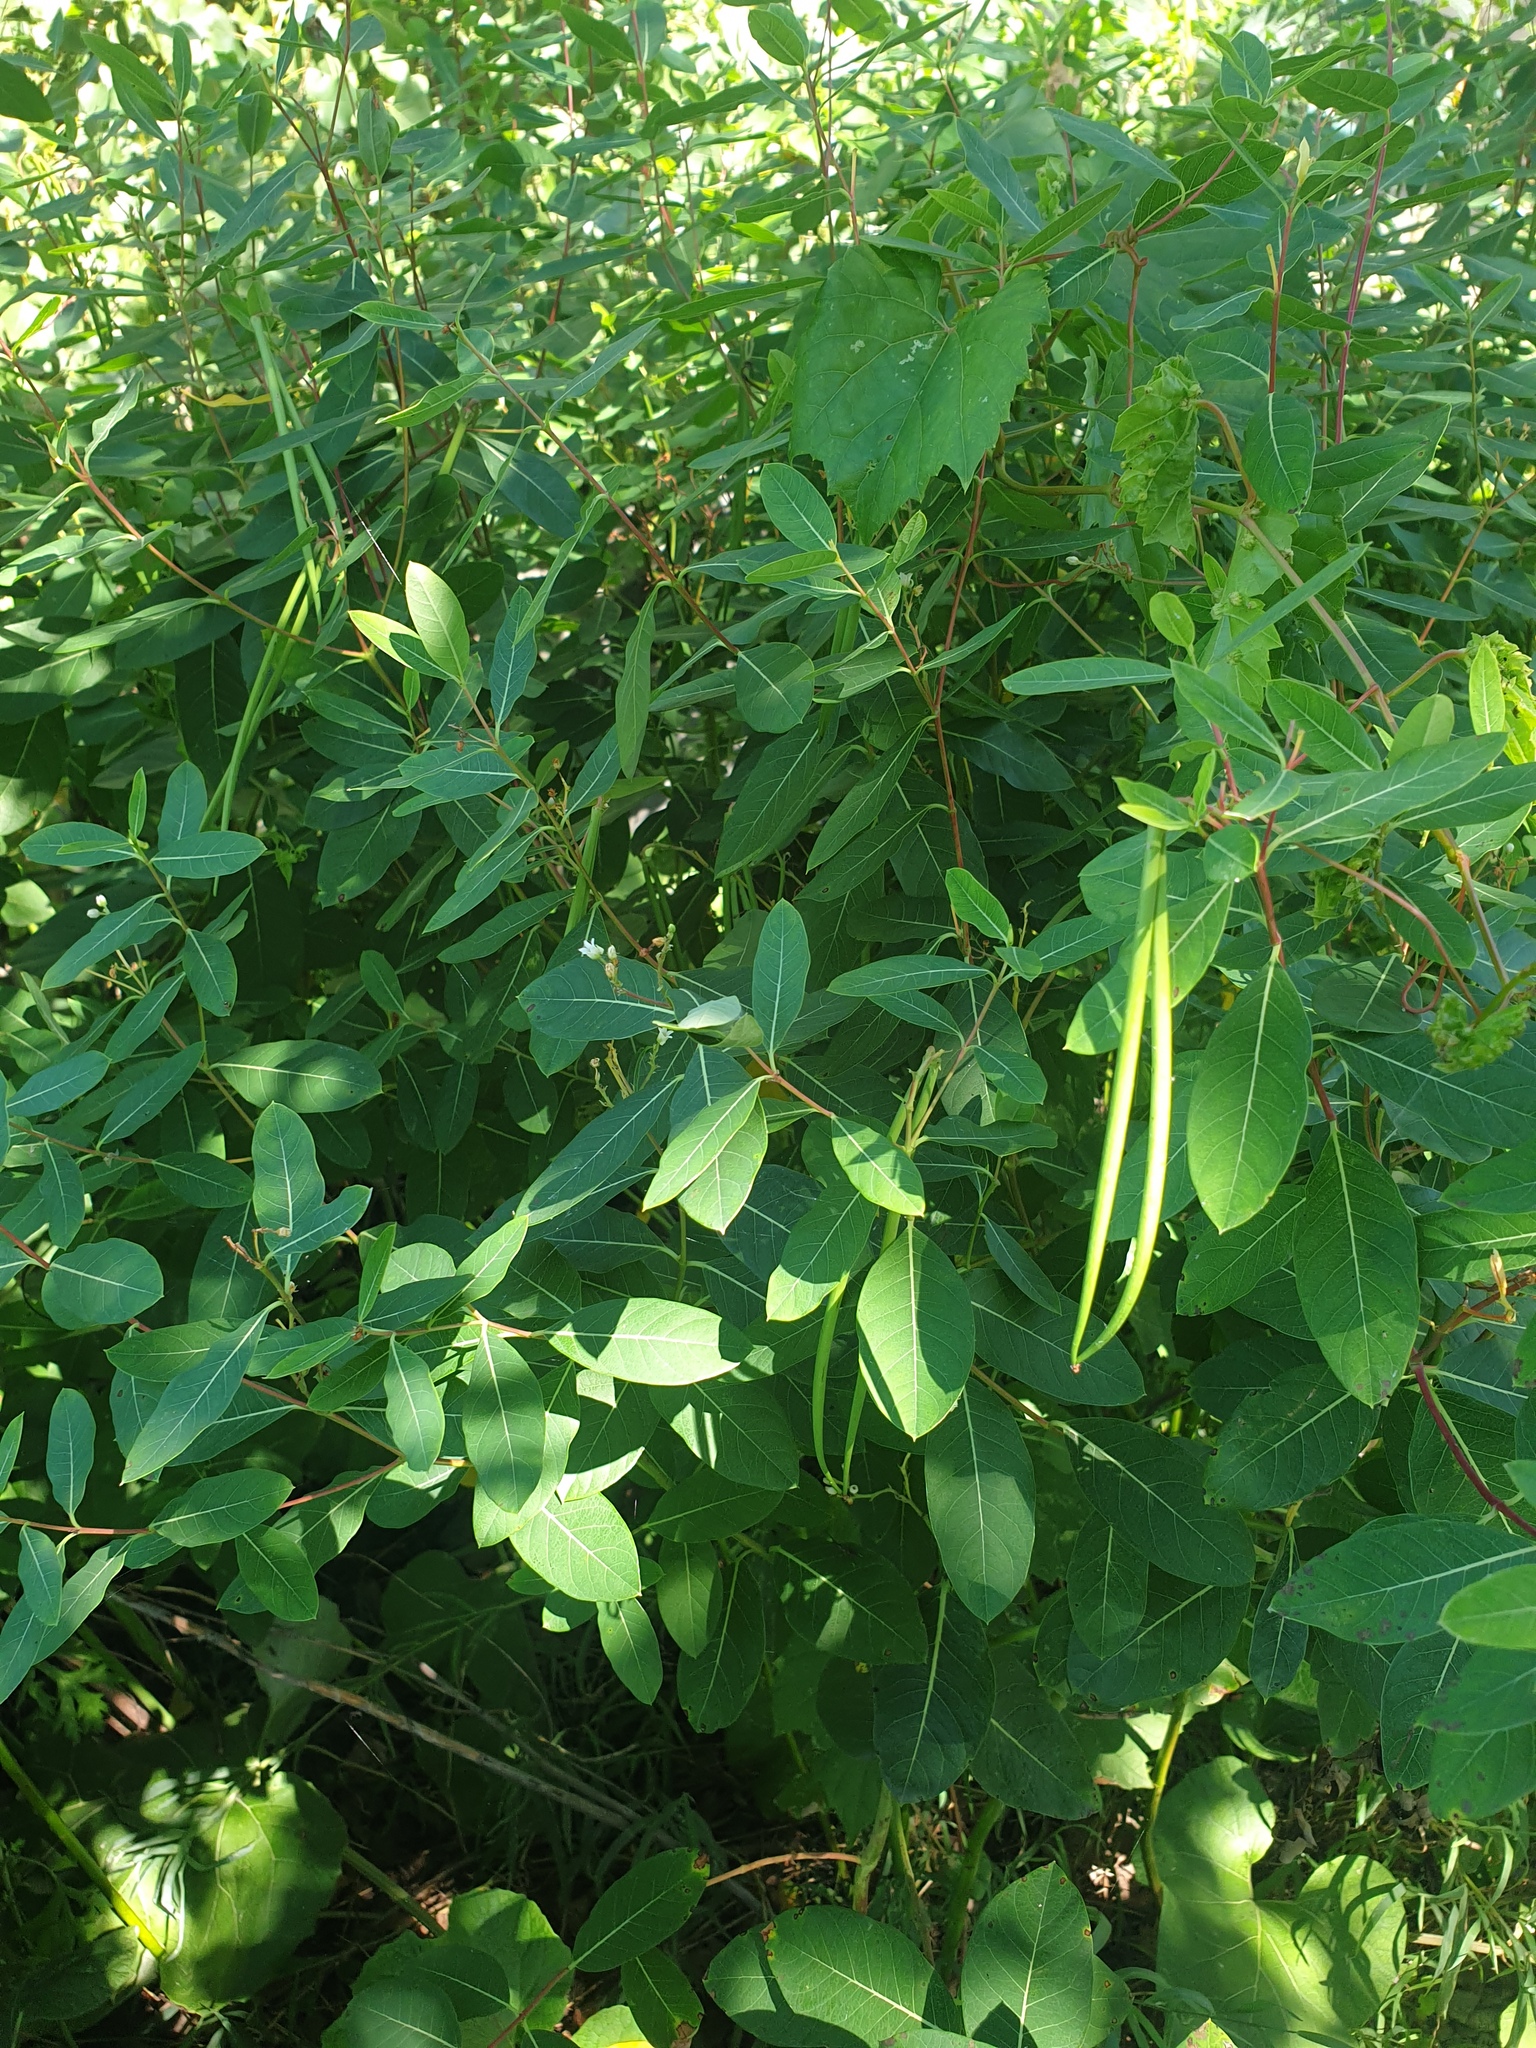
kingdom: Plantae
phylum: Tracheophyta
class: Magnoliopsida
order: Gentianales
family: Apocynaceae
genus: Apocynum
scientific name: Apocynum cannabinum
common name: Hemp dogbane
